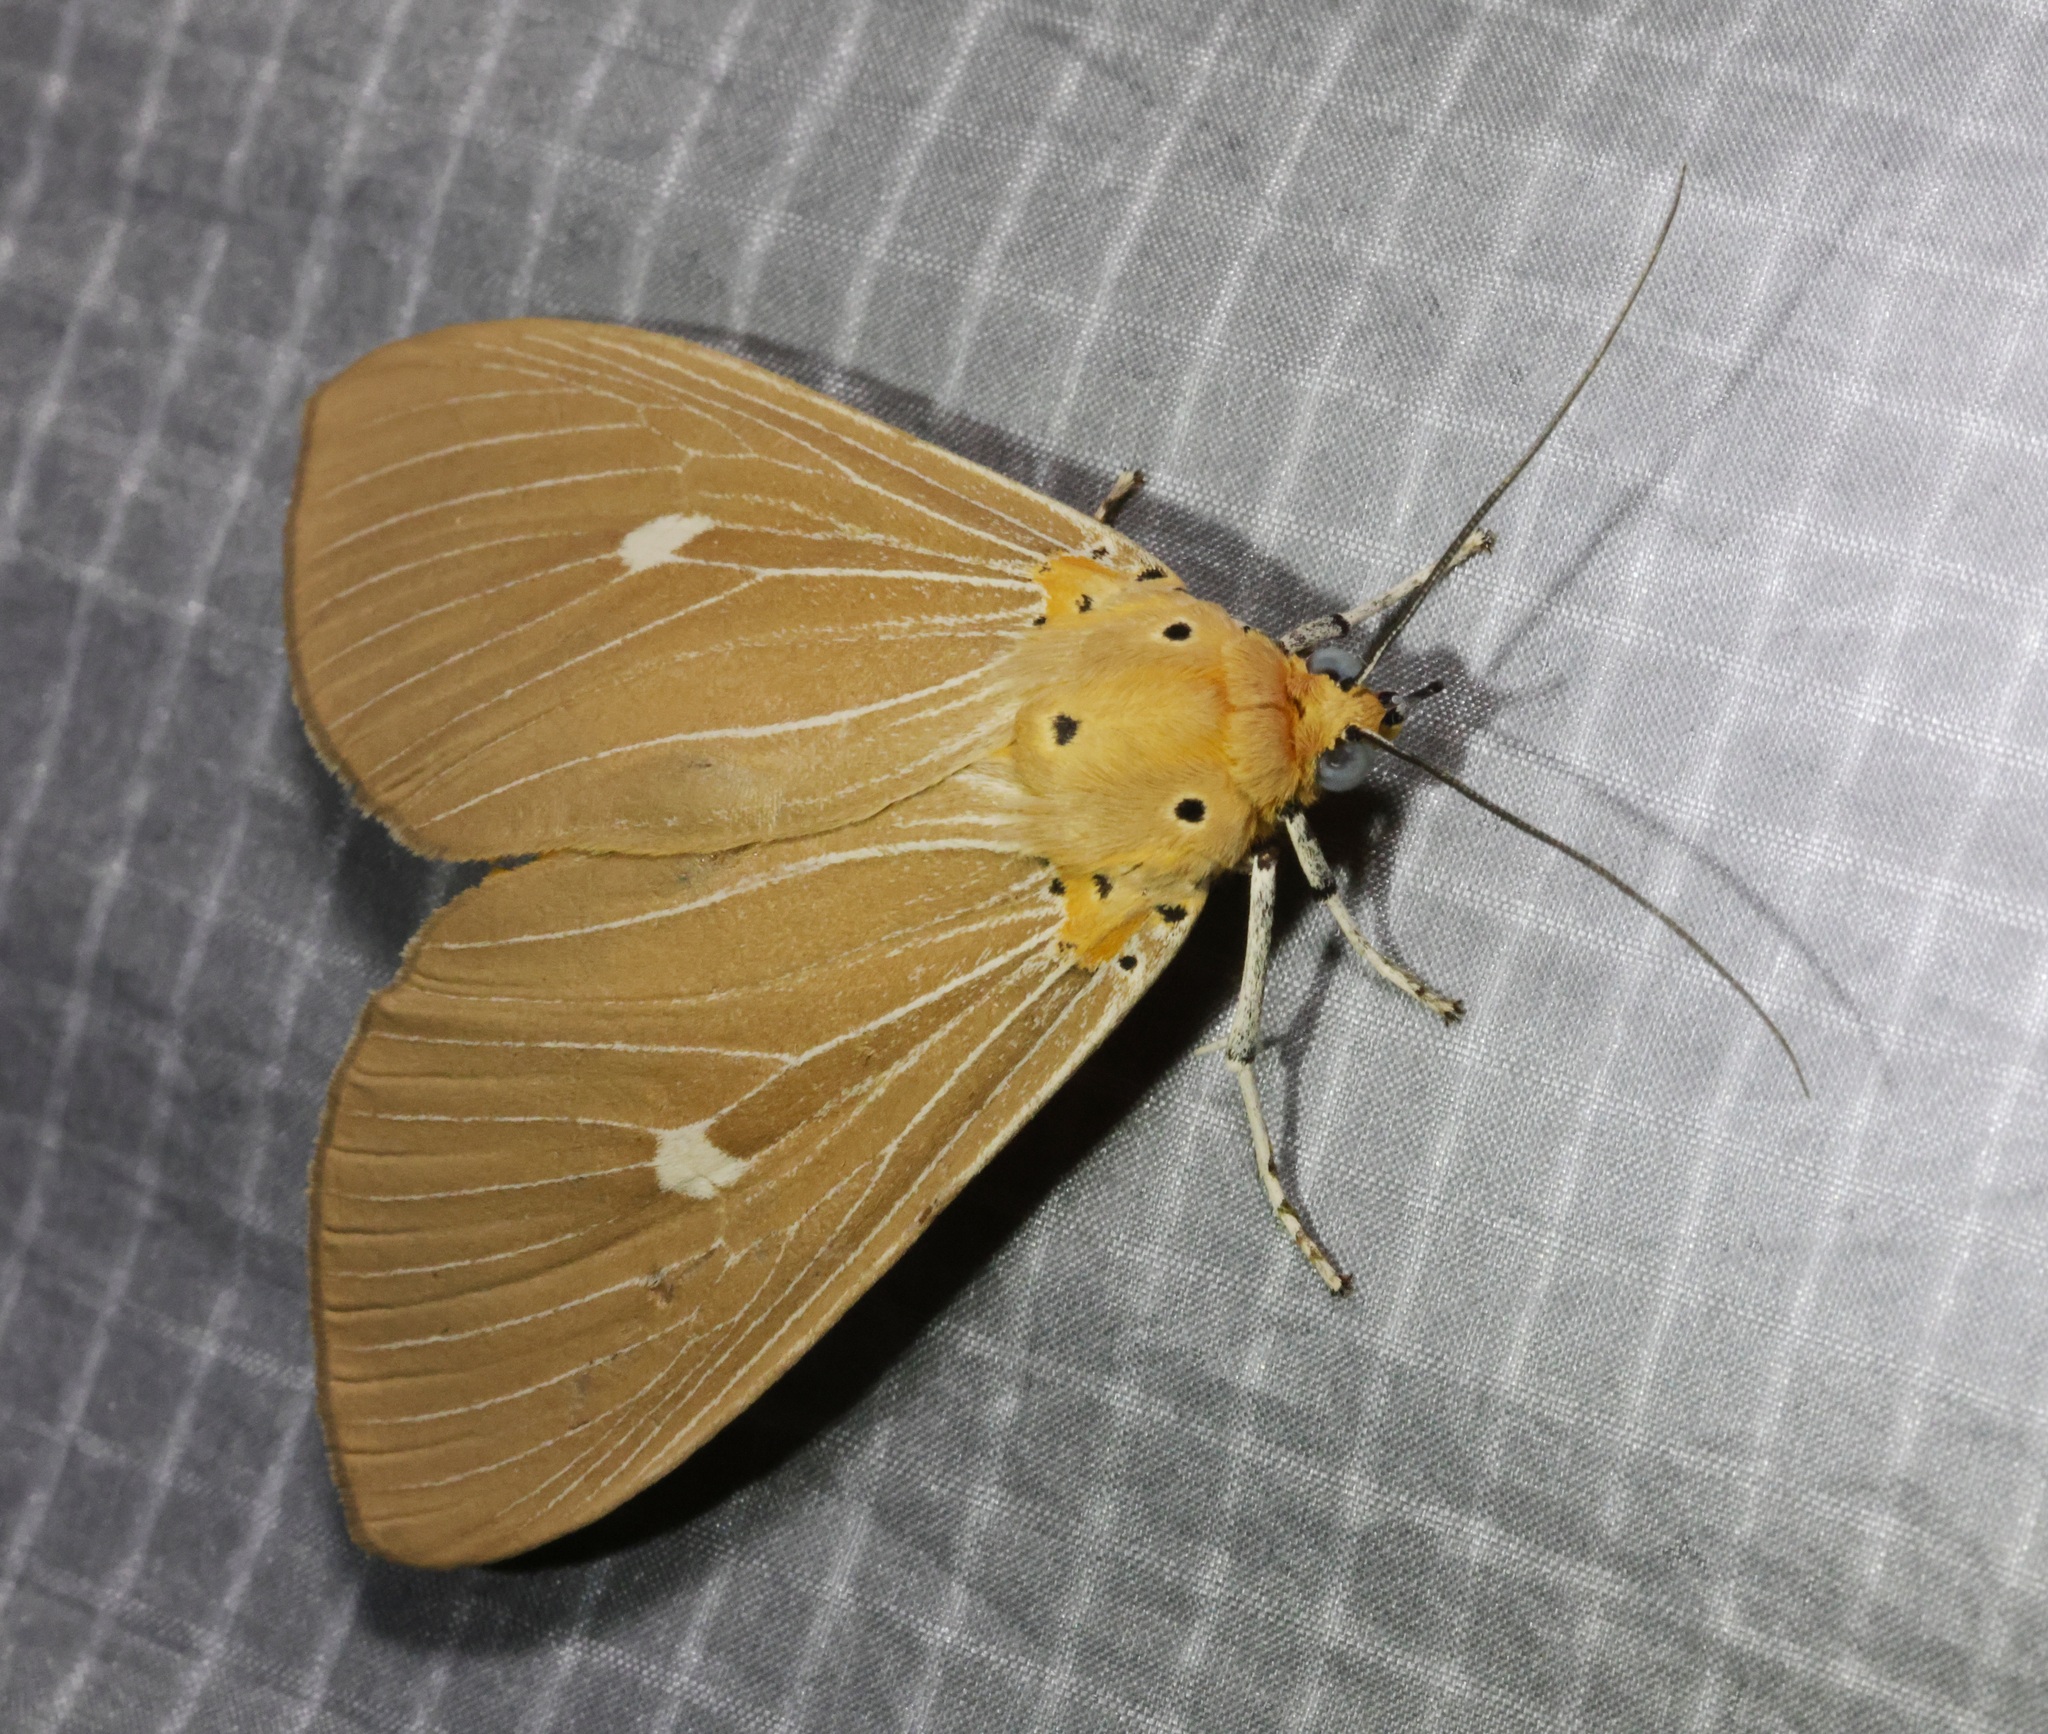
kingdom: Animalia
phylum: Arthropoda
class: Insecta
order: Lepidoptera
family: Erebidae
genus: Asota
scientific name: Asota caricae
